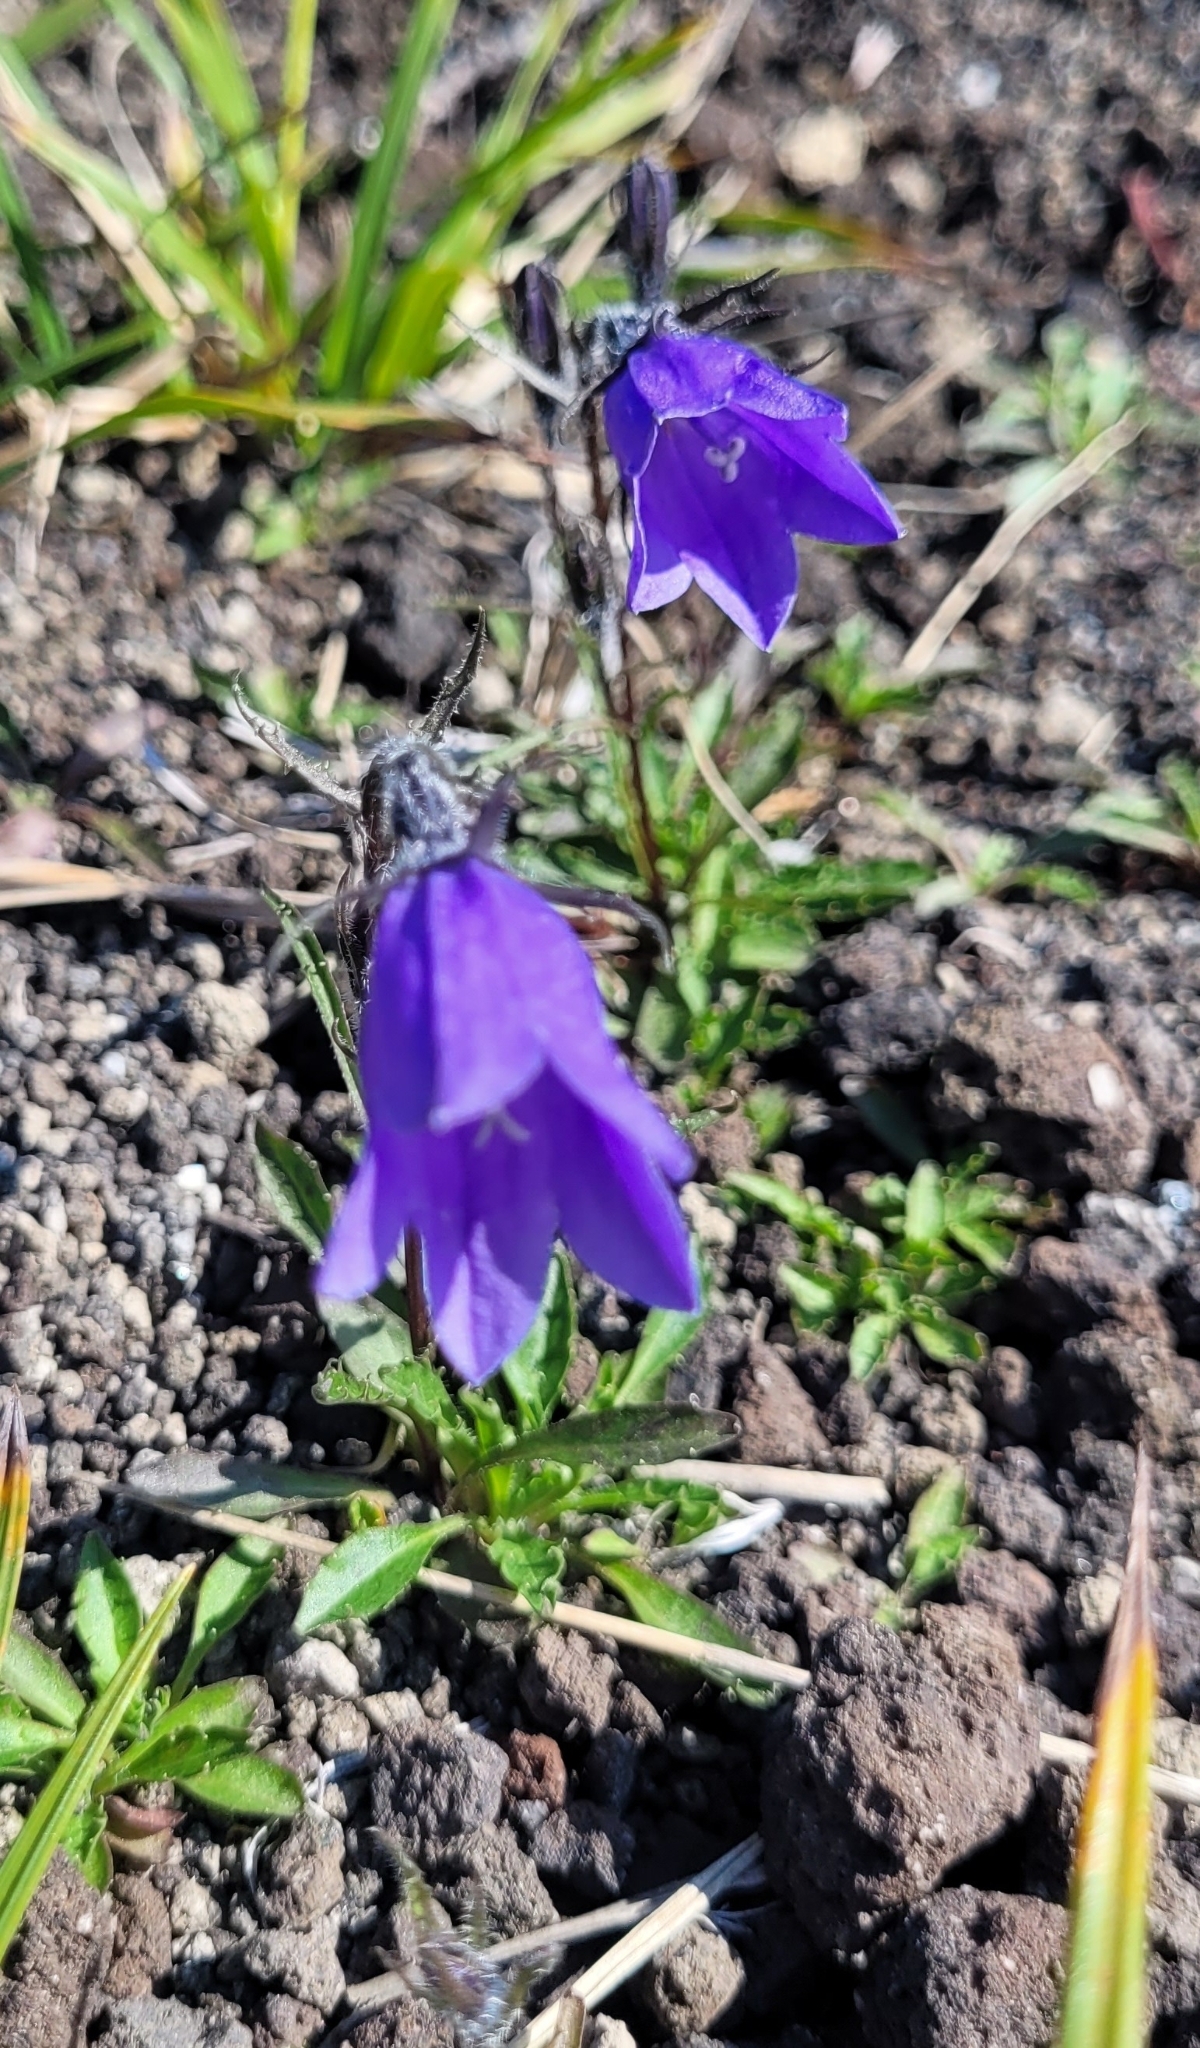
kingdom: Plantae
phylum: Tracheophyta
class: Magnoliopsida
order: Asterales
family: Campanulaceae
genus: Campanula
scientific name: Campanula lasiocarpa
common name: Mountain harebell
